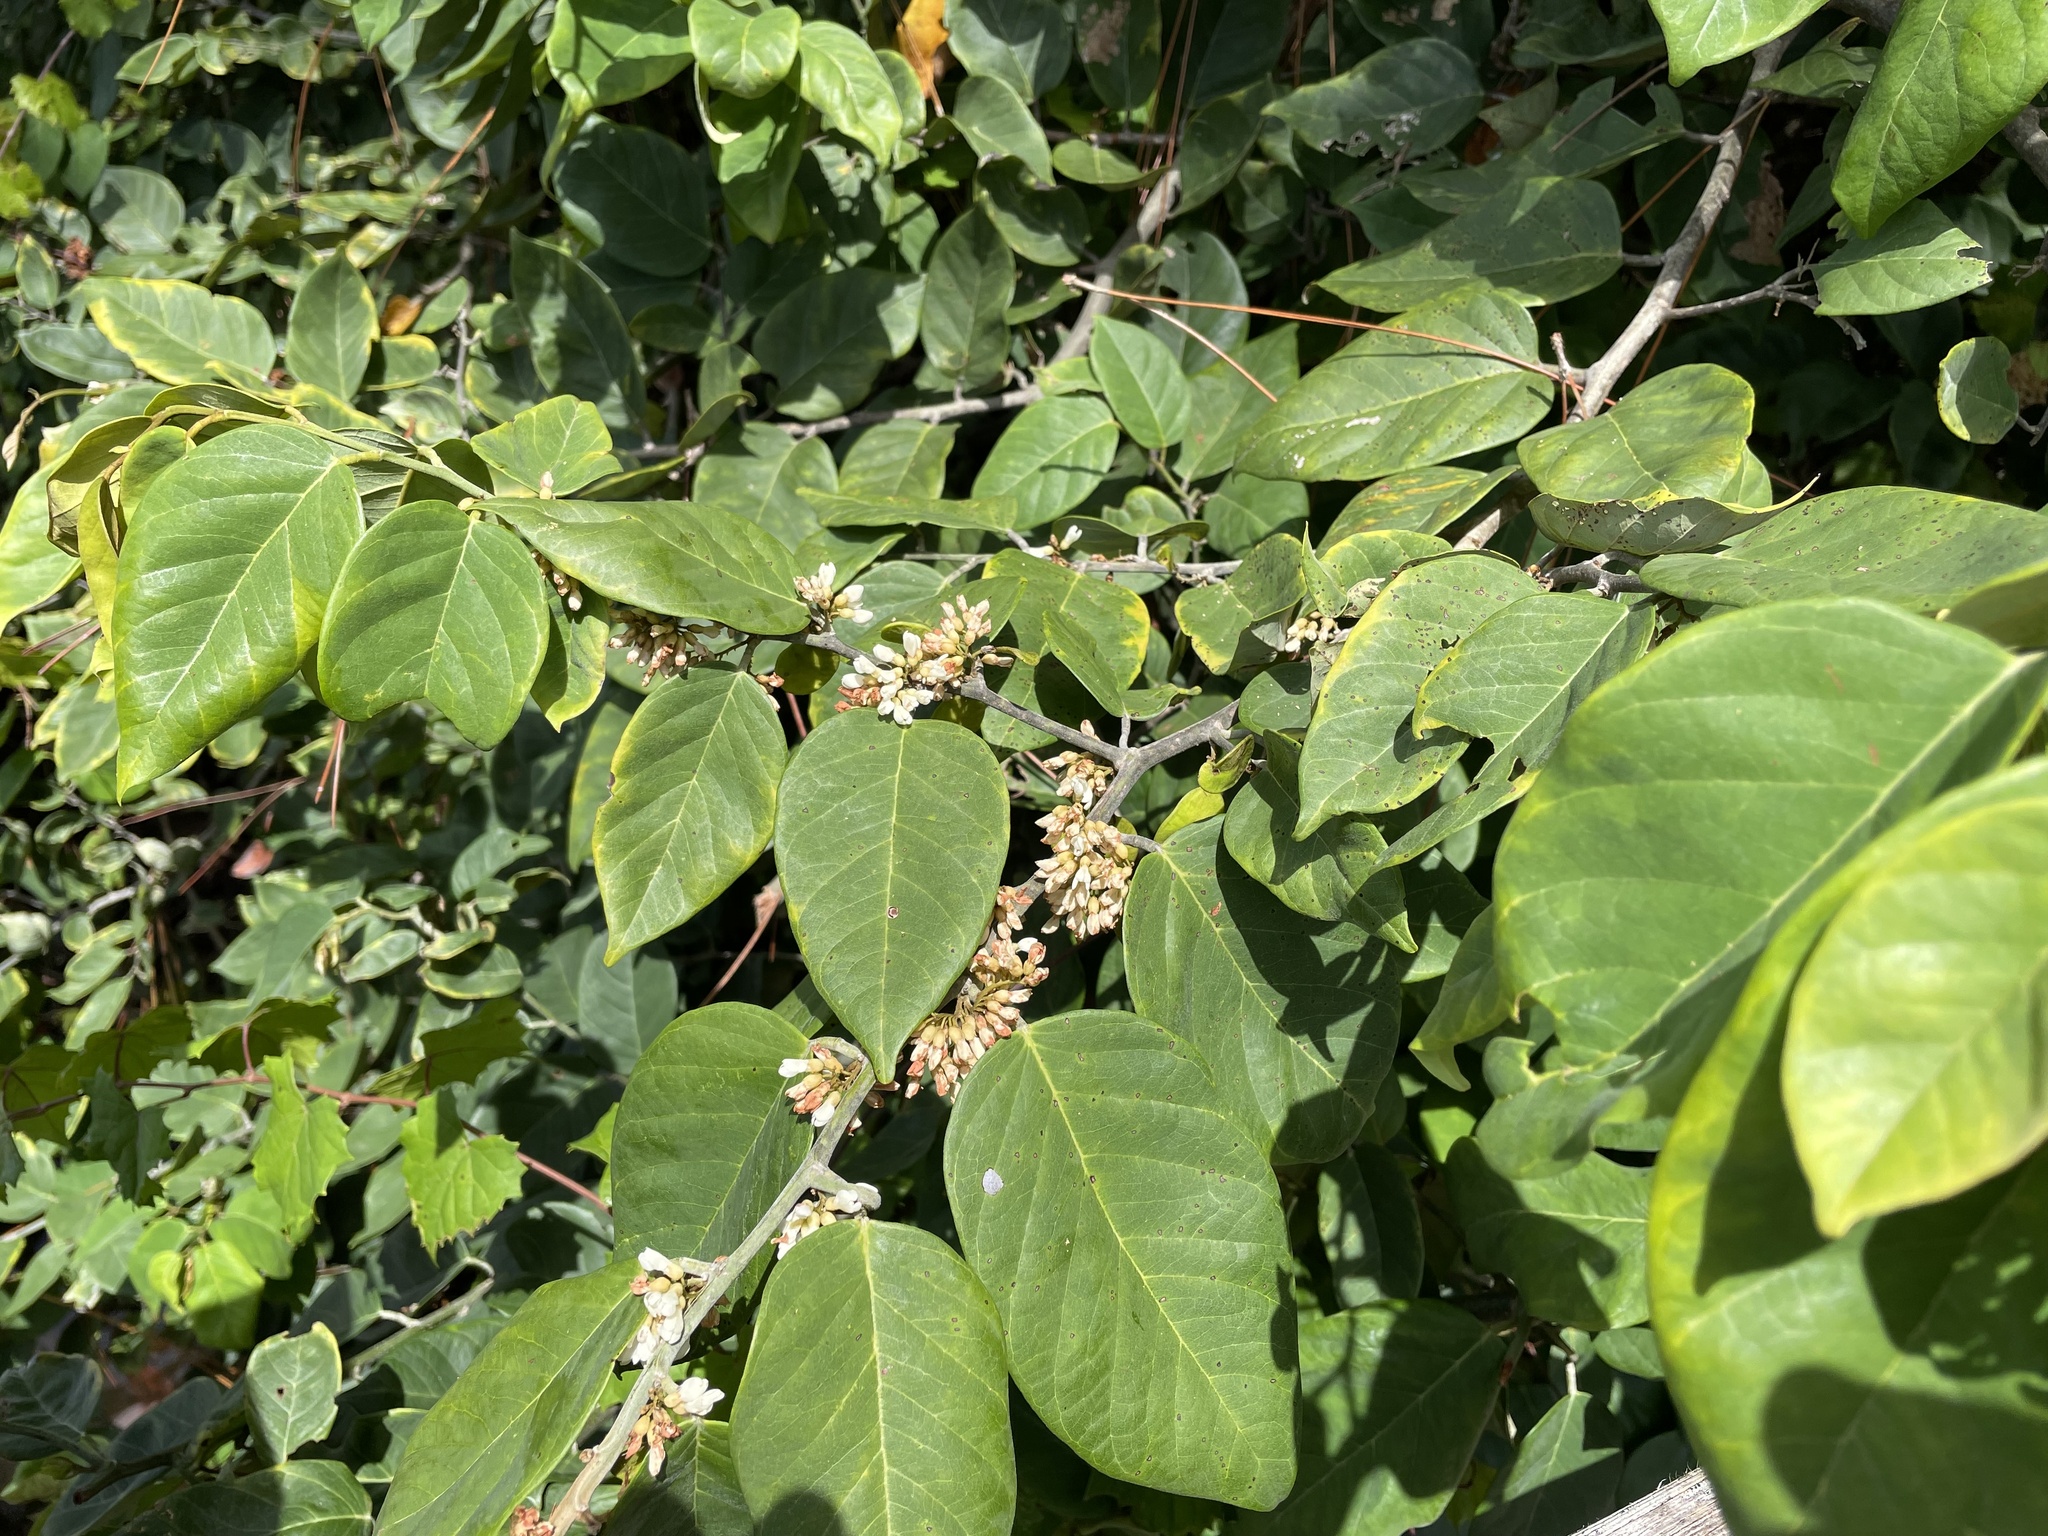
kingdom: Plantae
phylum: Tracheophyta
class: Magnoliopsida
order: Fabales
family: Fabaceae
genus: Dalbergia
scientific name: Dalbergia ecastaphyllum
